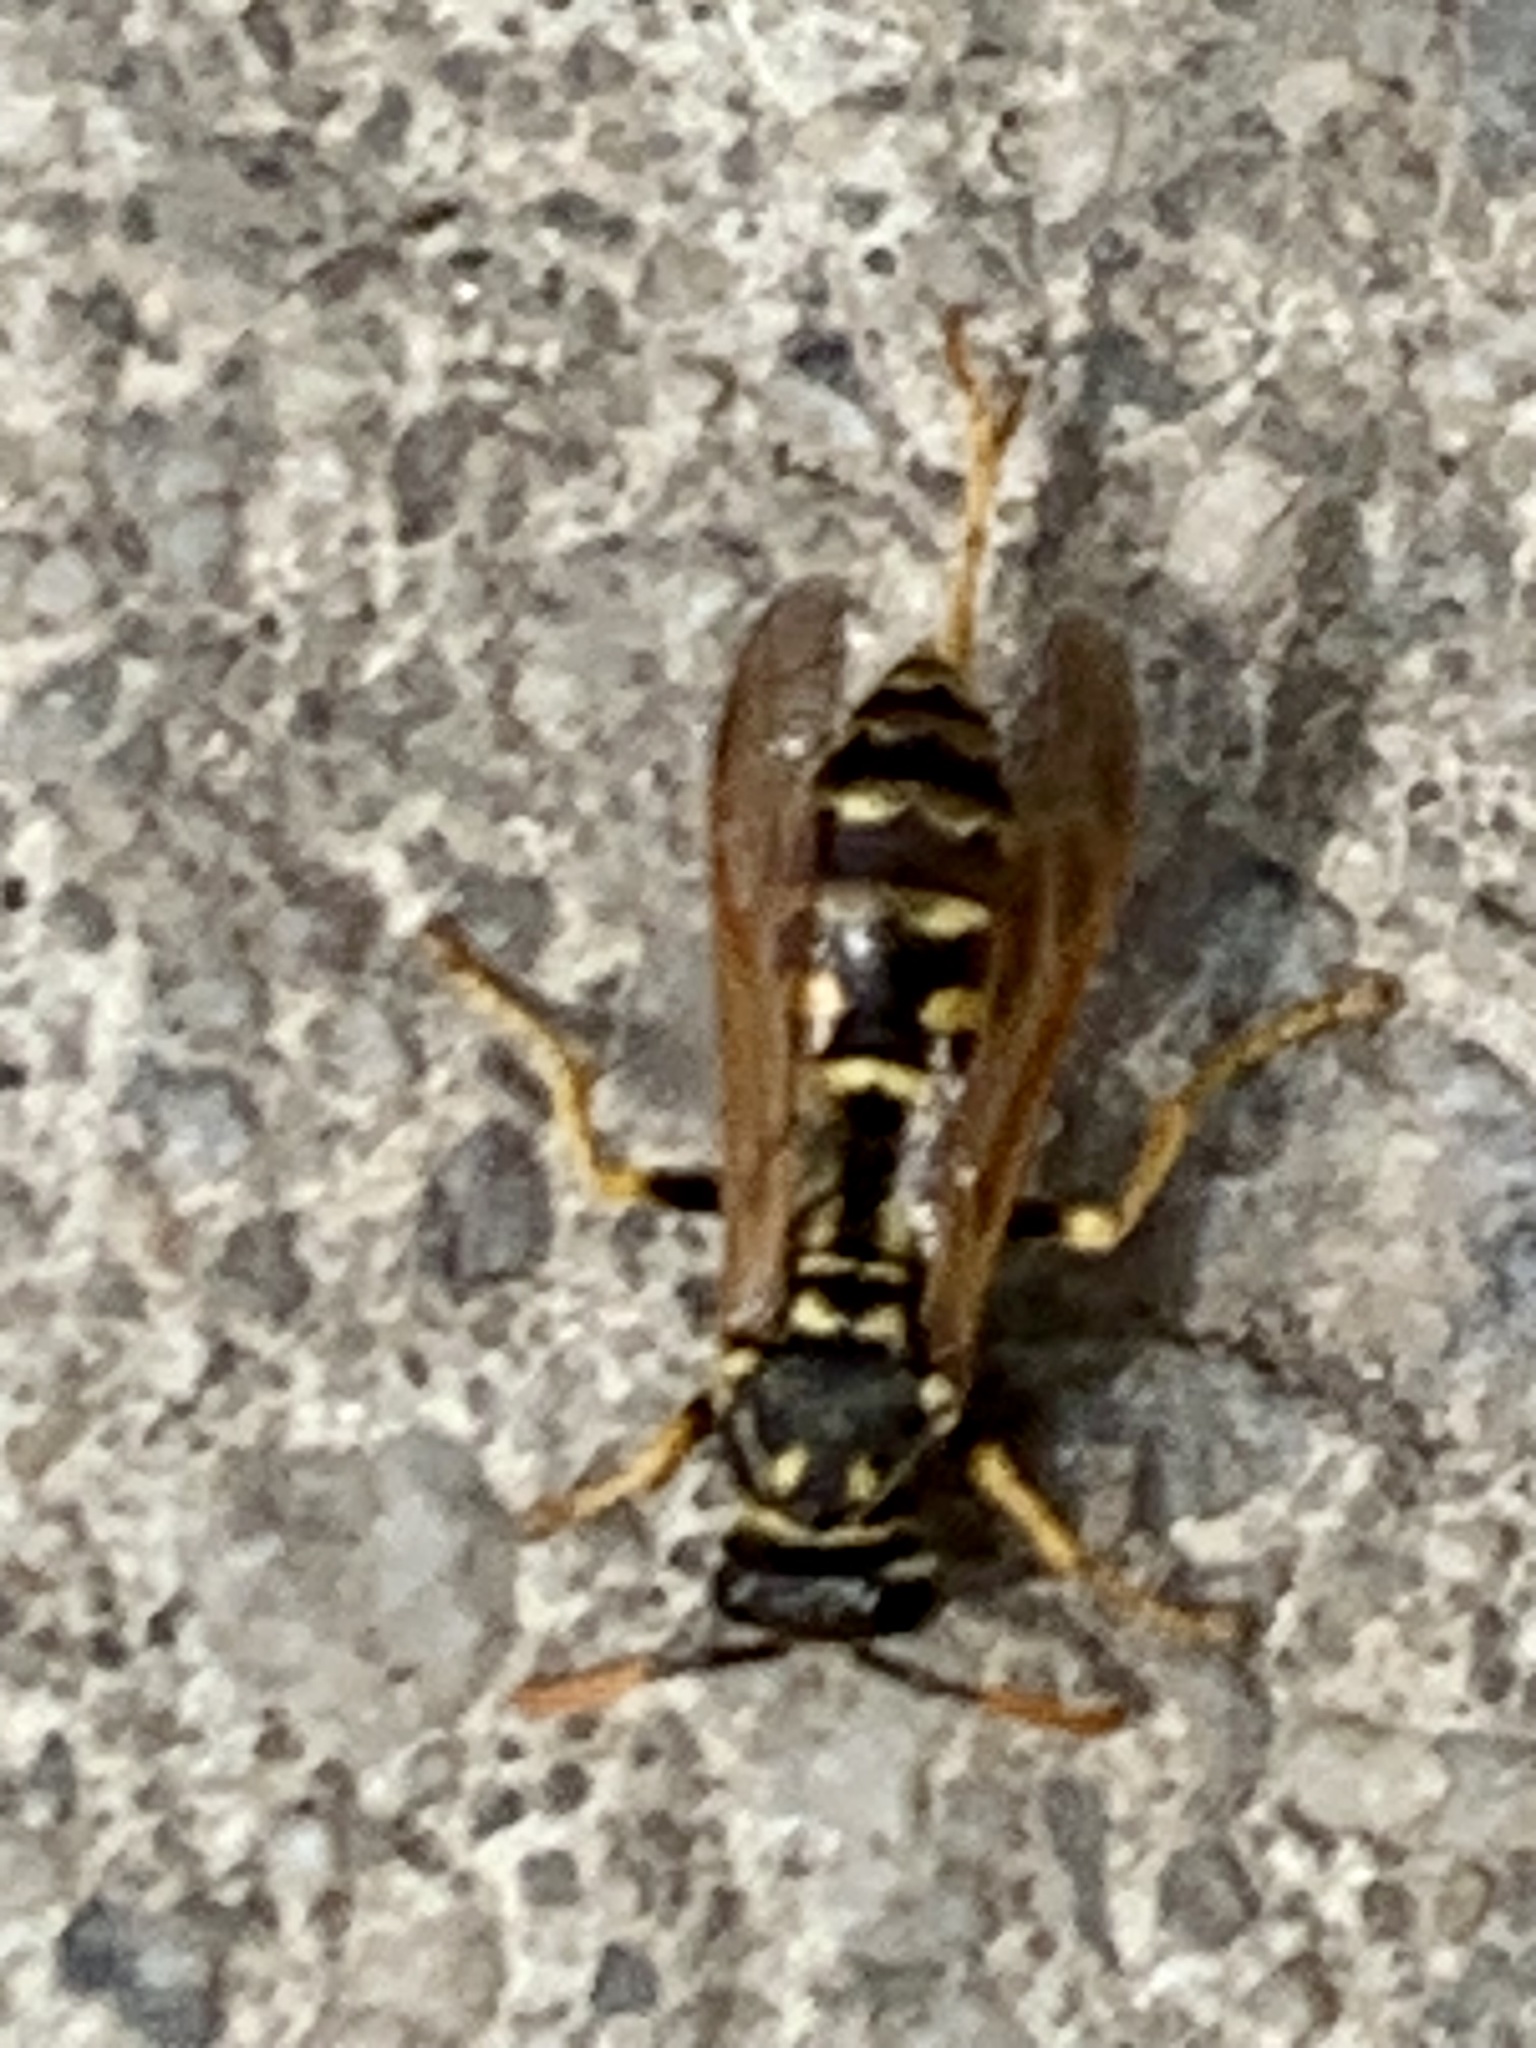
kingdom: Animalia
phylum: Arthropoda
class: Insecta
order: Hymenoptera
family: Eumenidae
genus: Polistes
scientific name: Polistes dominula
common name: Paper wasp
